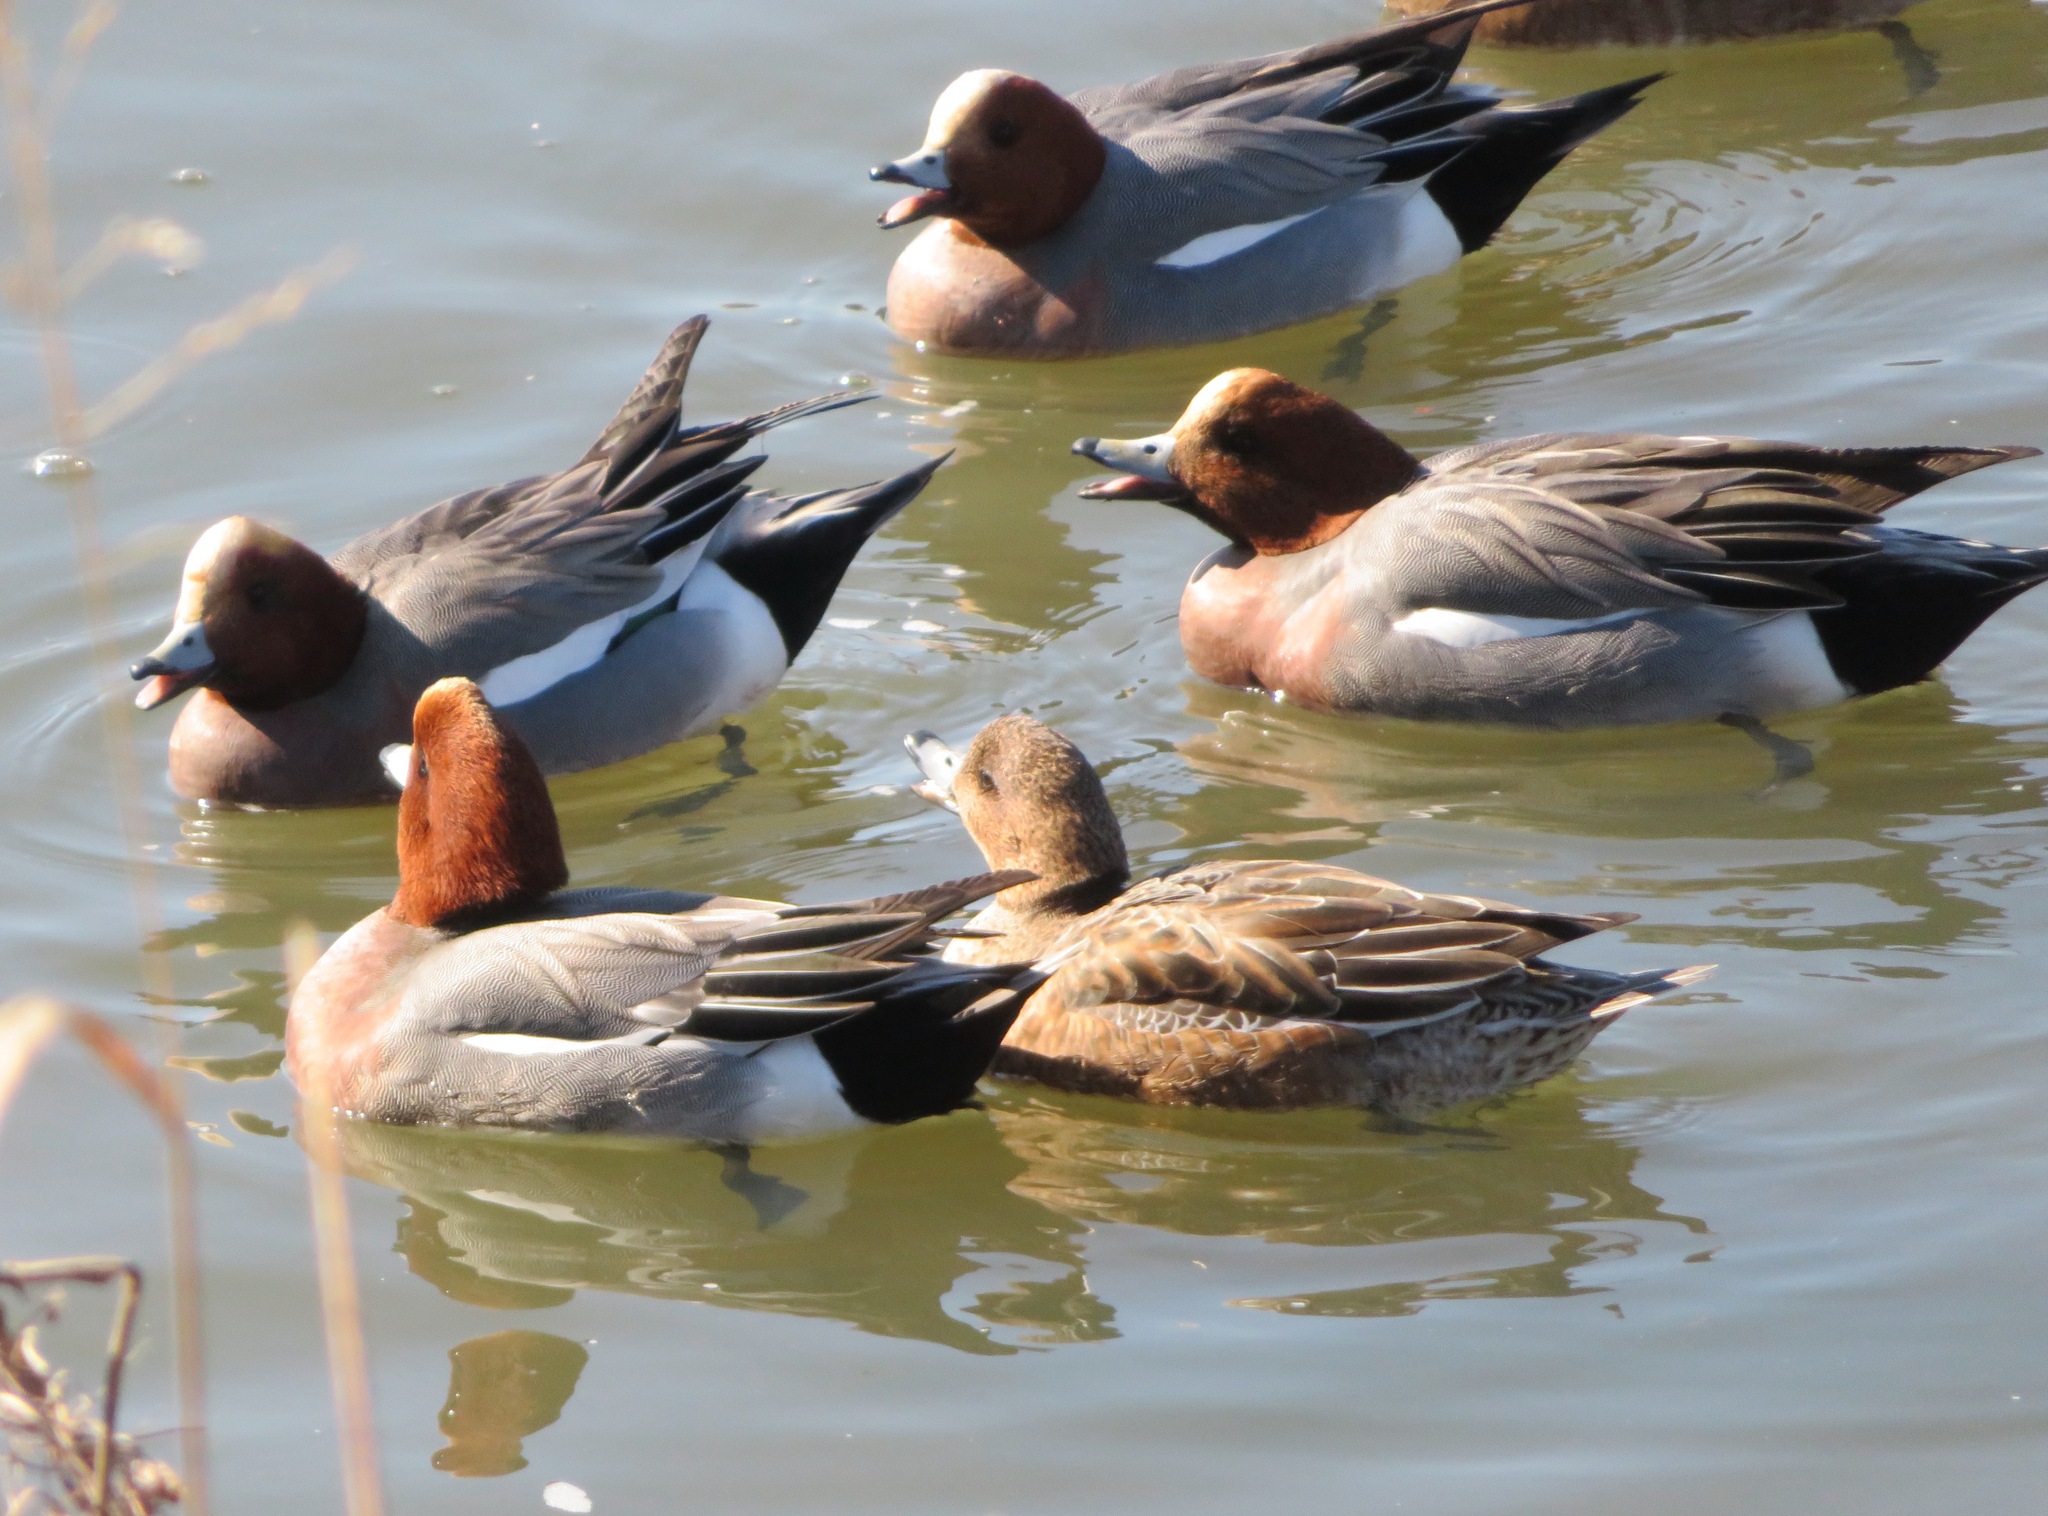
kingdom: Animalia
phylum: Chordata
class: Aves
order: Anseriformes
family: Anatidae
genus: Mareca
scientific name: Mareca penelope
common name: Eurasian wigeon
